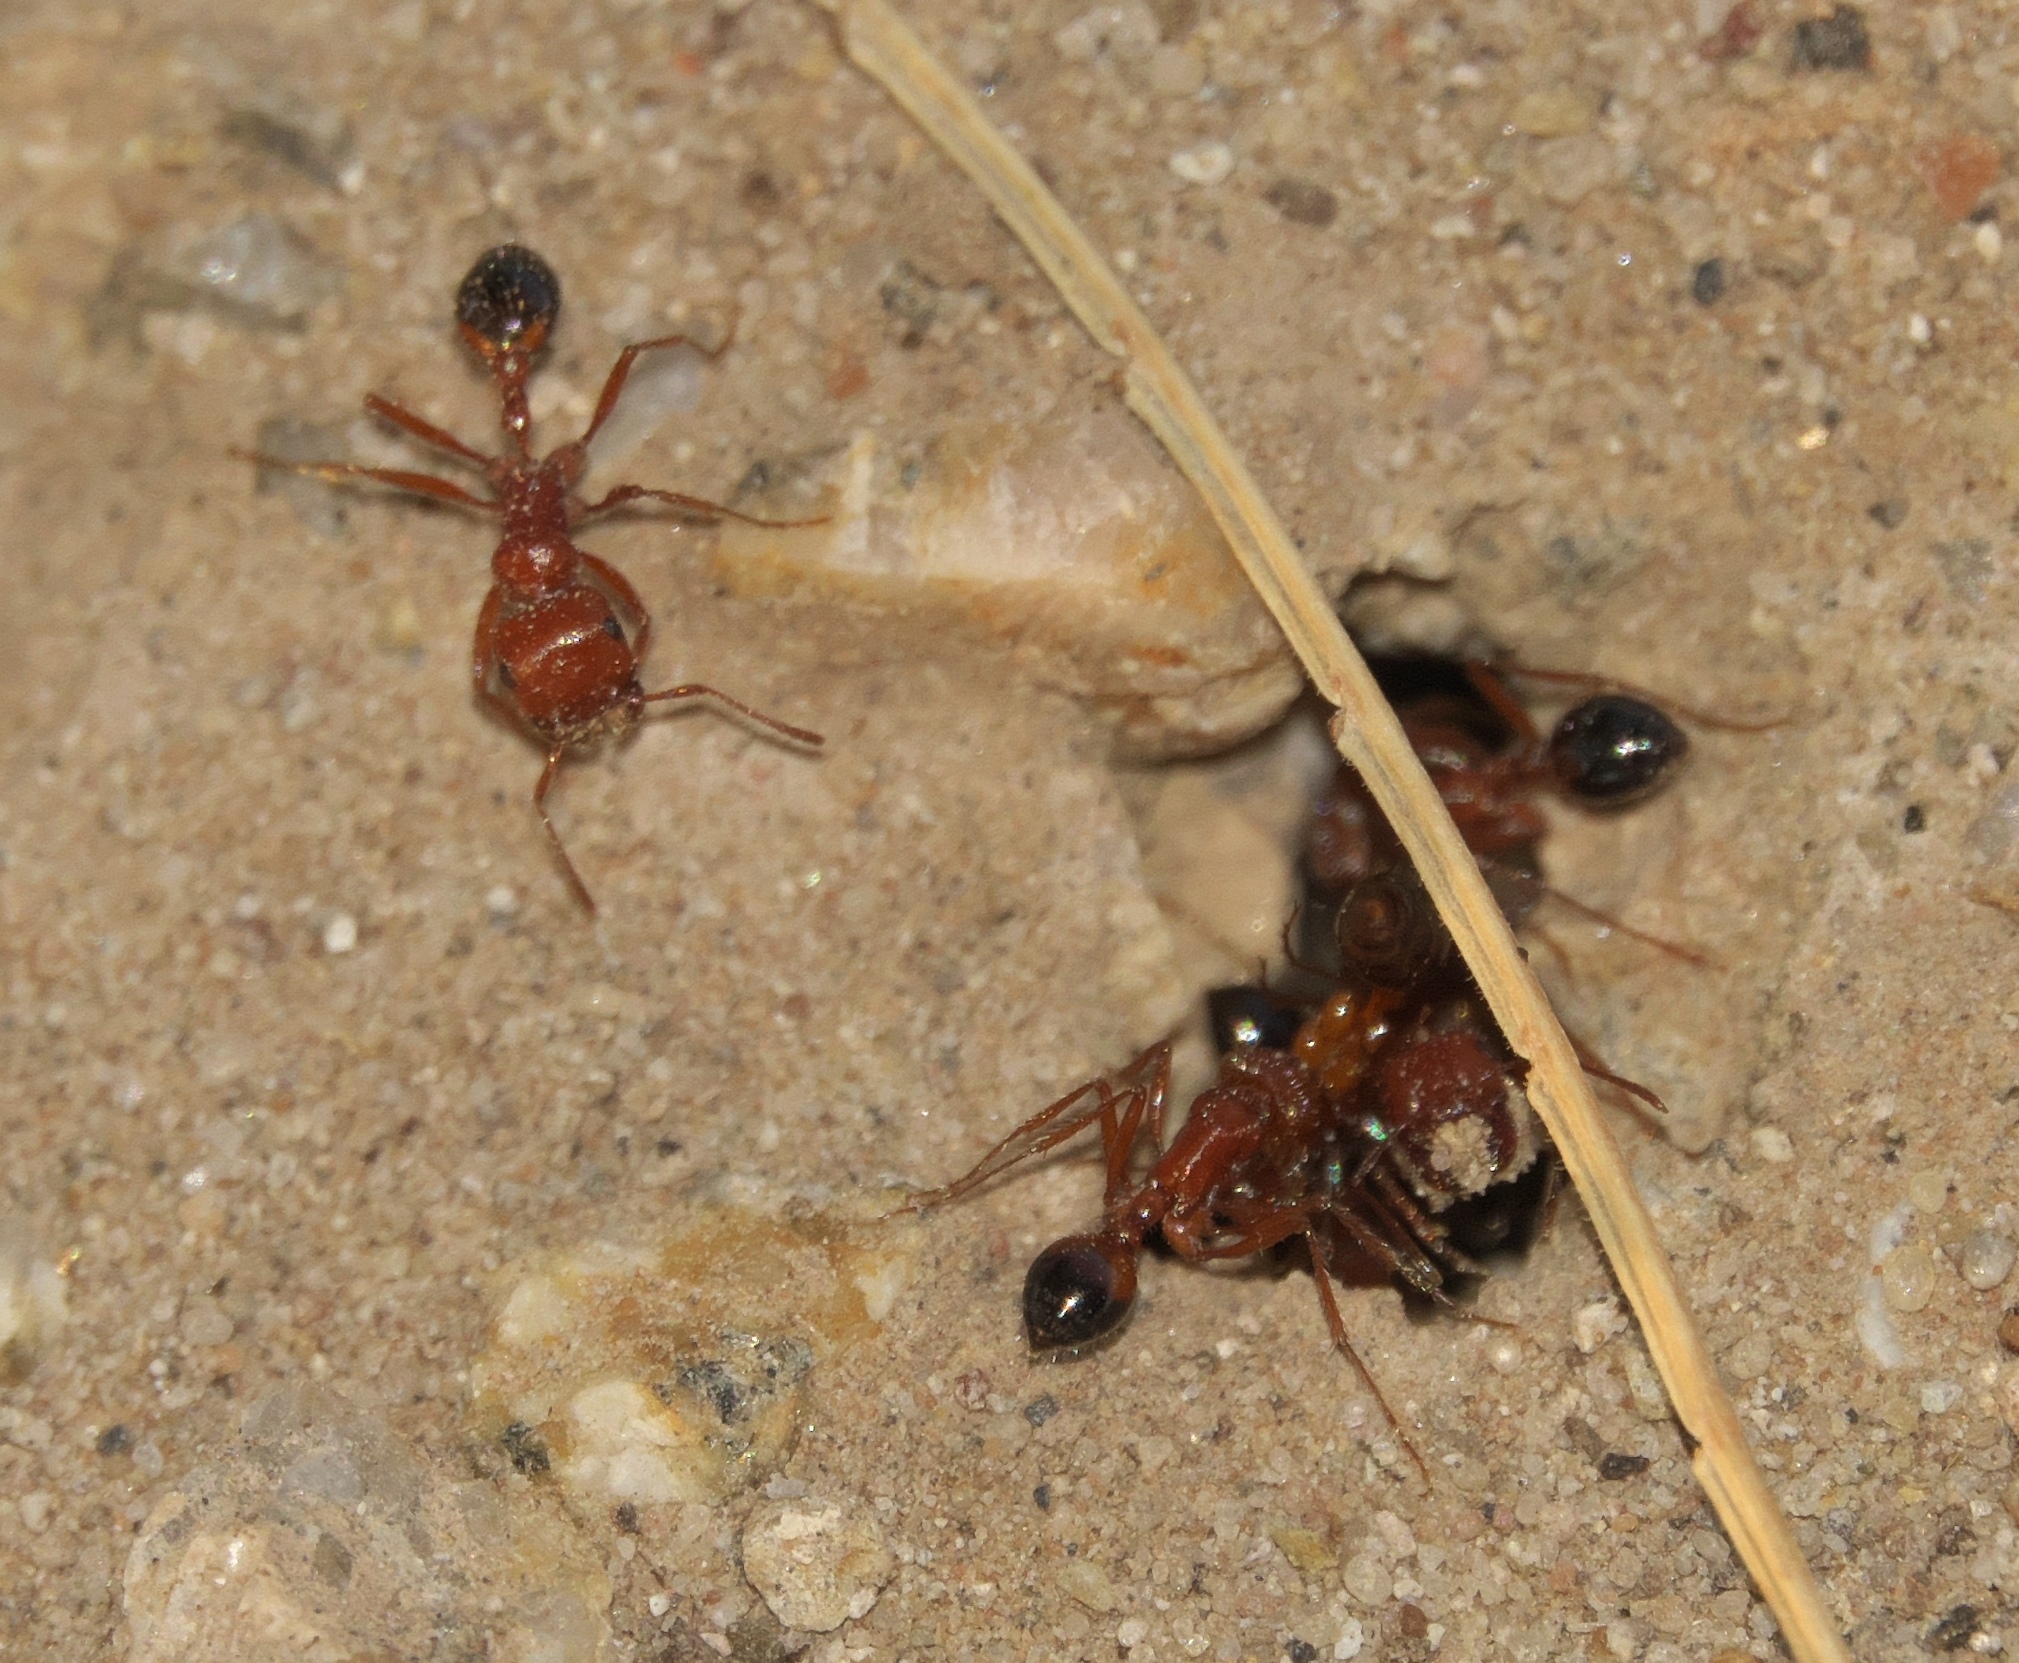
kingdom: Animalia
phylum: Arthropoda
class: Insecta
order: Hymenoptera
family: Formicidae
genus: Pogonomyrmex
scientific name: Pogonomyrmex californicus
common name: California harvester ant
